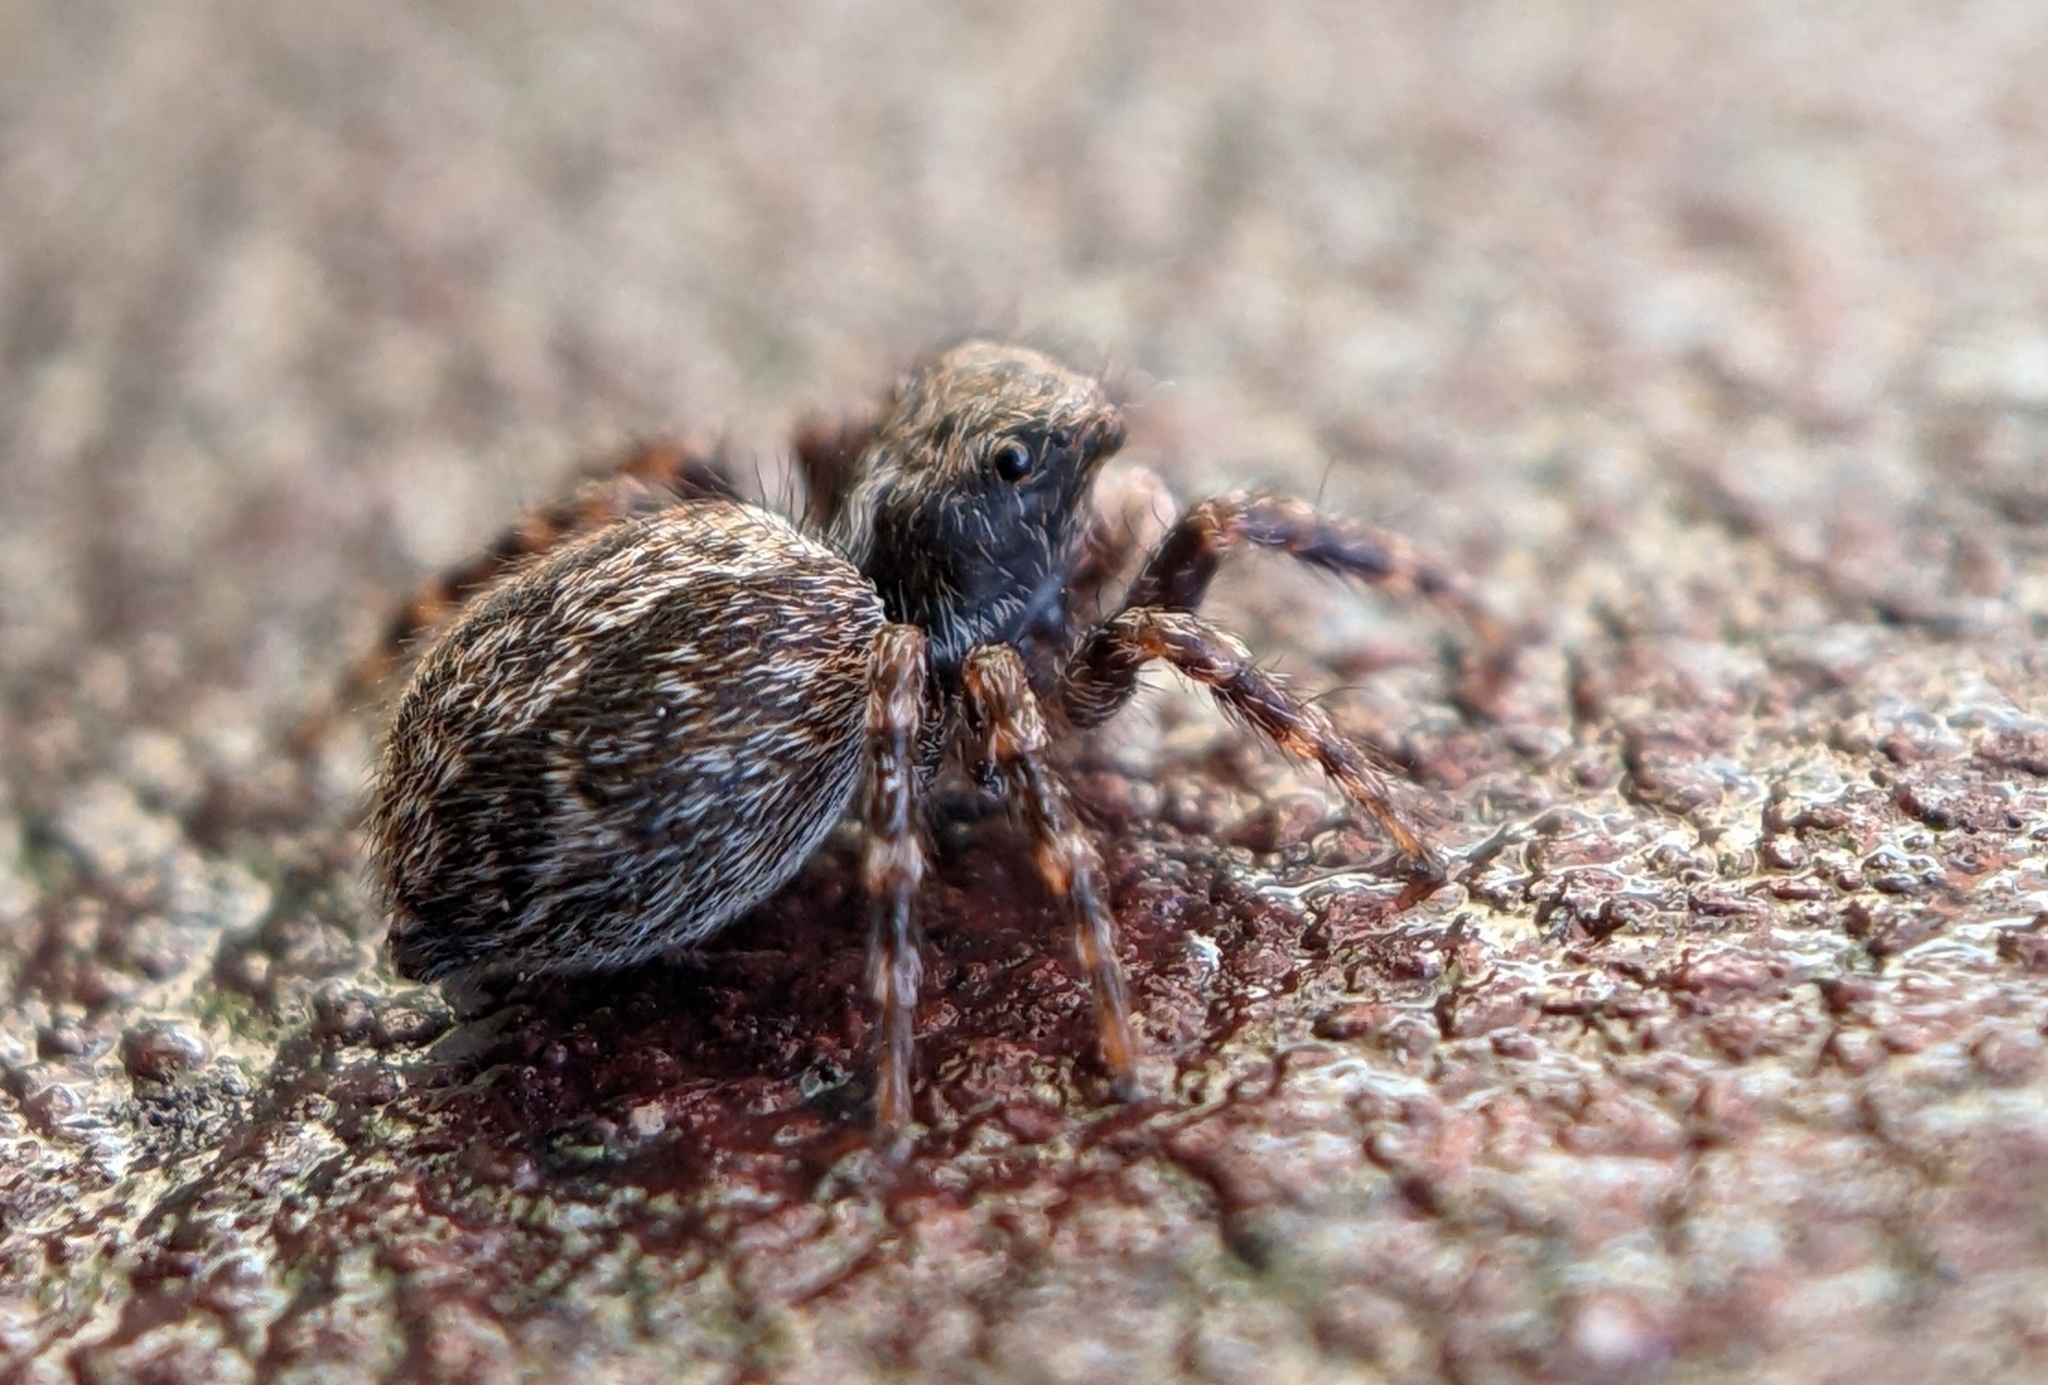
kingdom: Animalia
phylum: Arthropoda
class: Arachnida
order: Araneae
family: Salticidae
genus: Pseudeuophrys
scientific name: Pseudeuophrys lanigera
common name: Jumping spider
